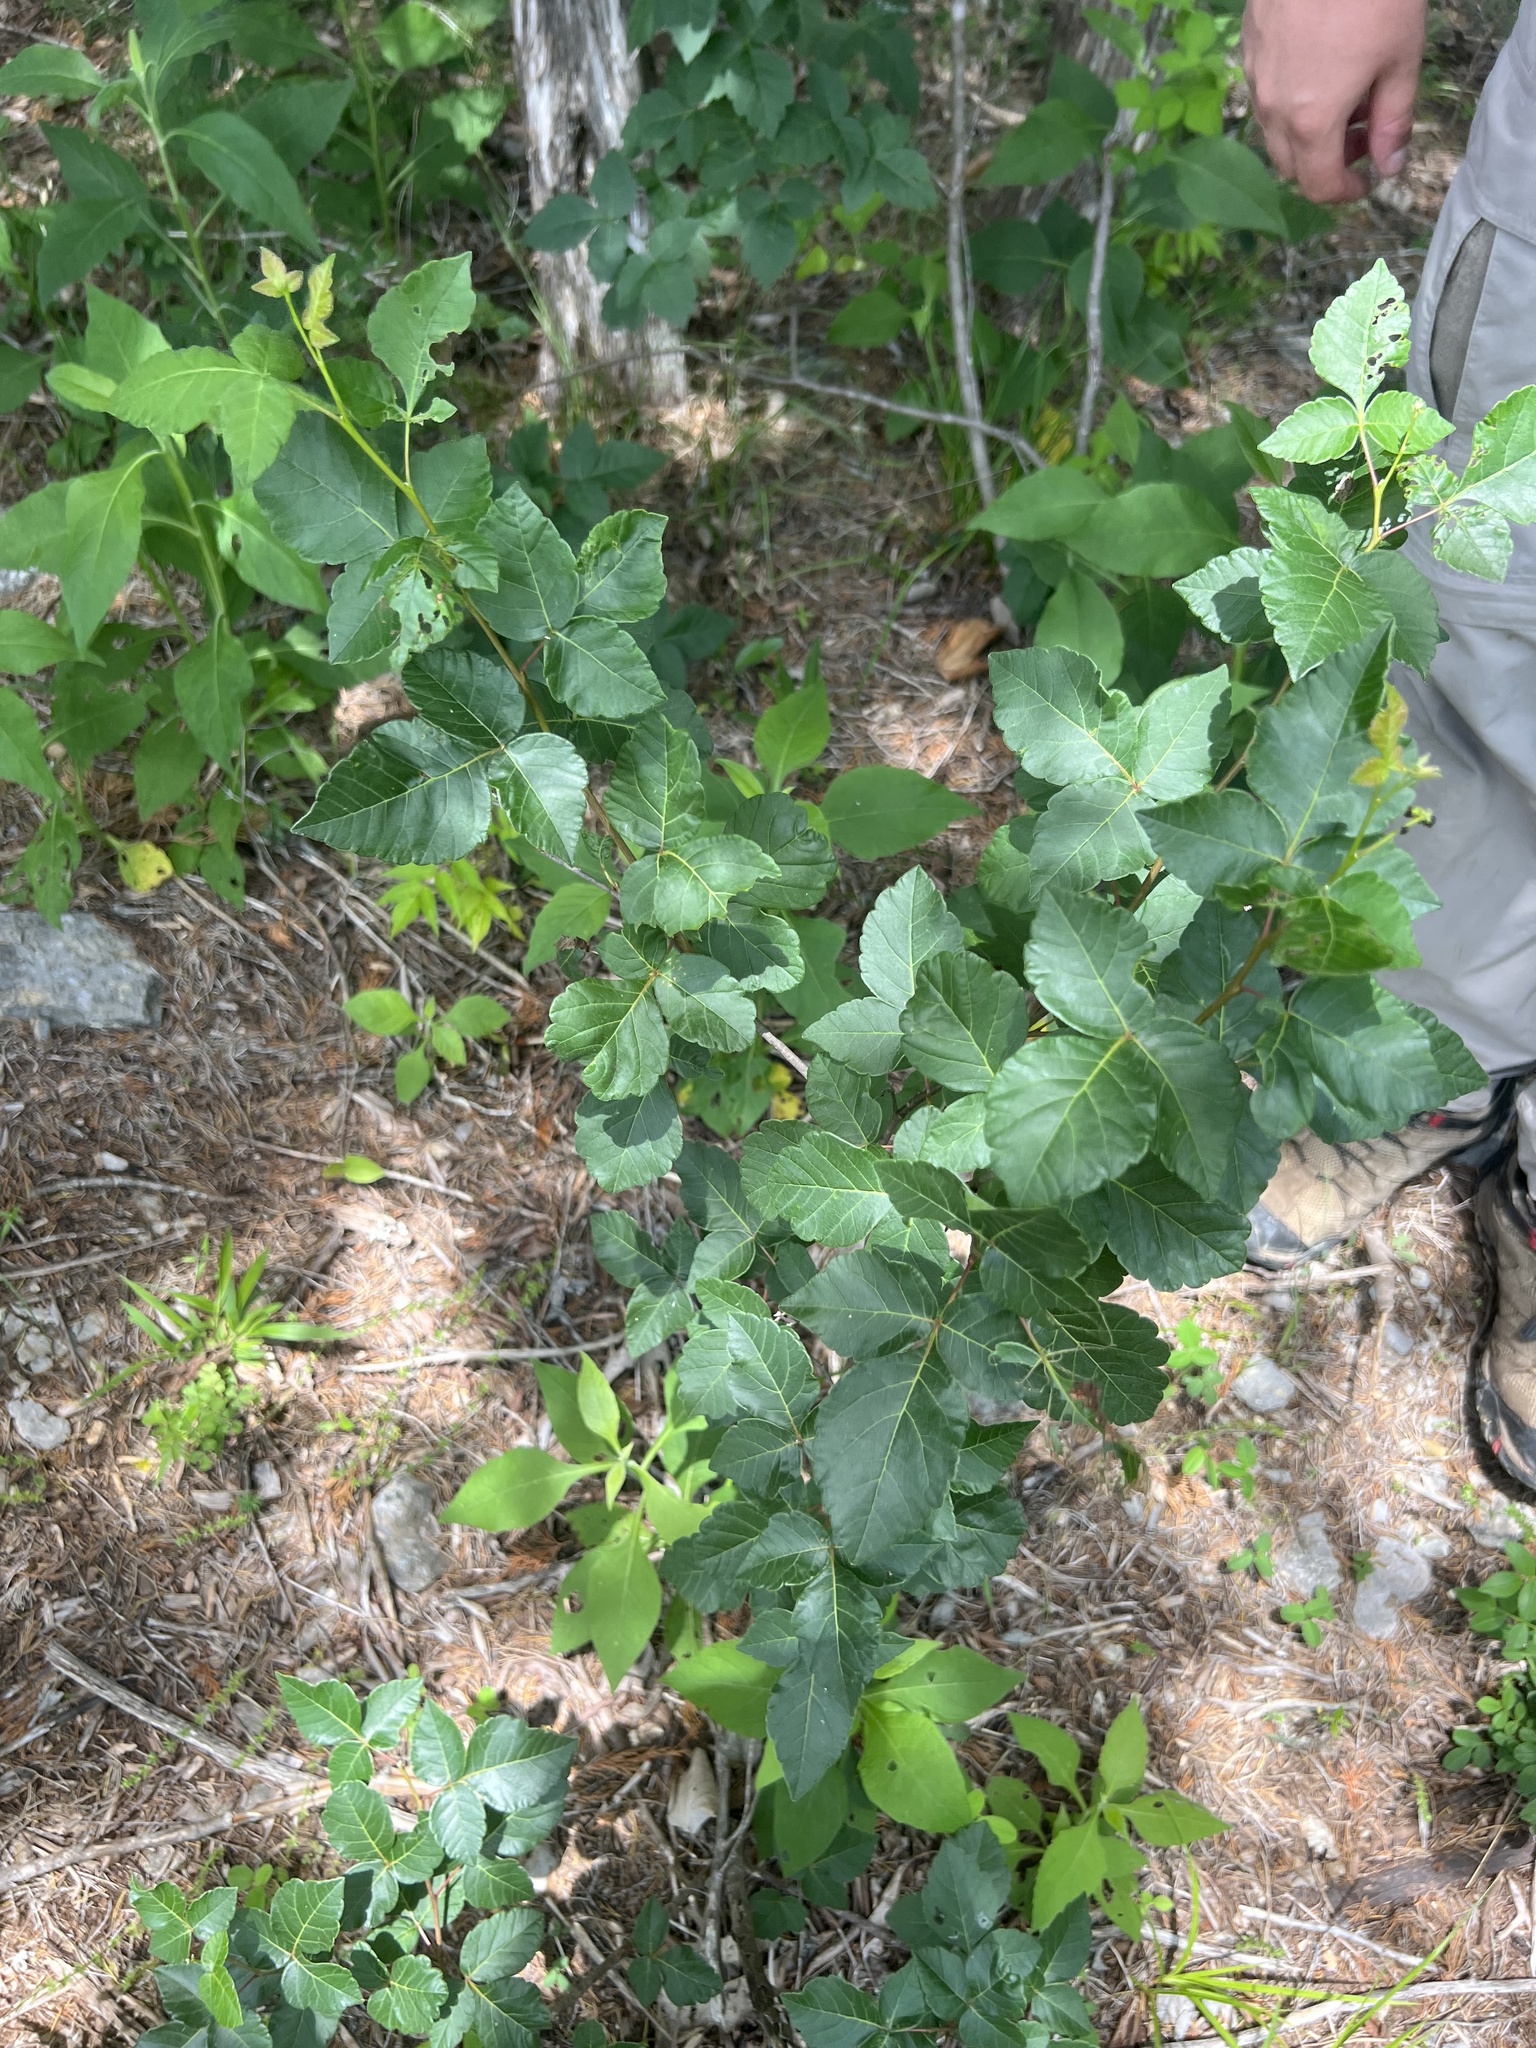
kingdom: Plantae
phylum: Tracheophyta
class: Magnoliopsida
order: Sapindales
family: Anacardiaceae
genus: Rhus
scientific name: Rhus aromatica
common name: Aromatic sumac
